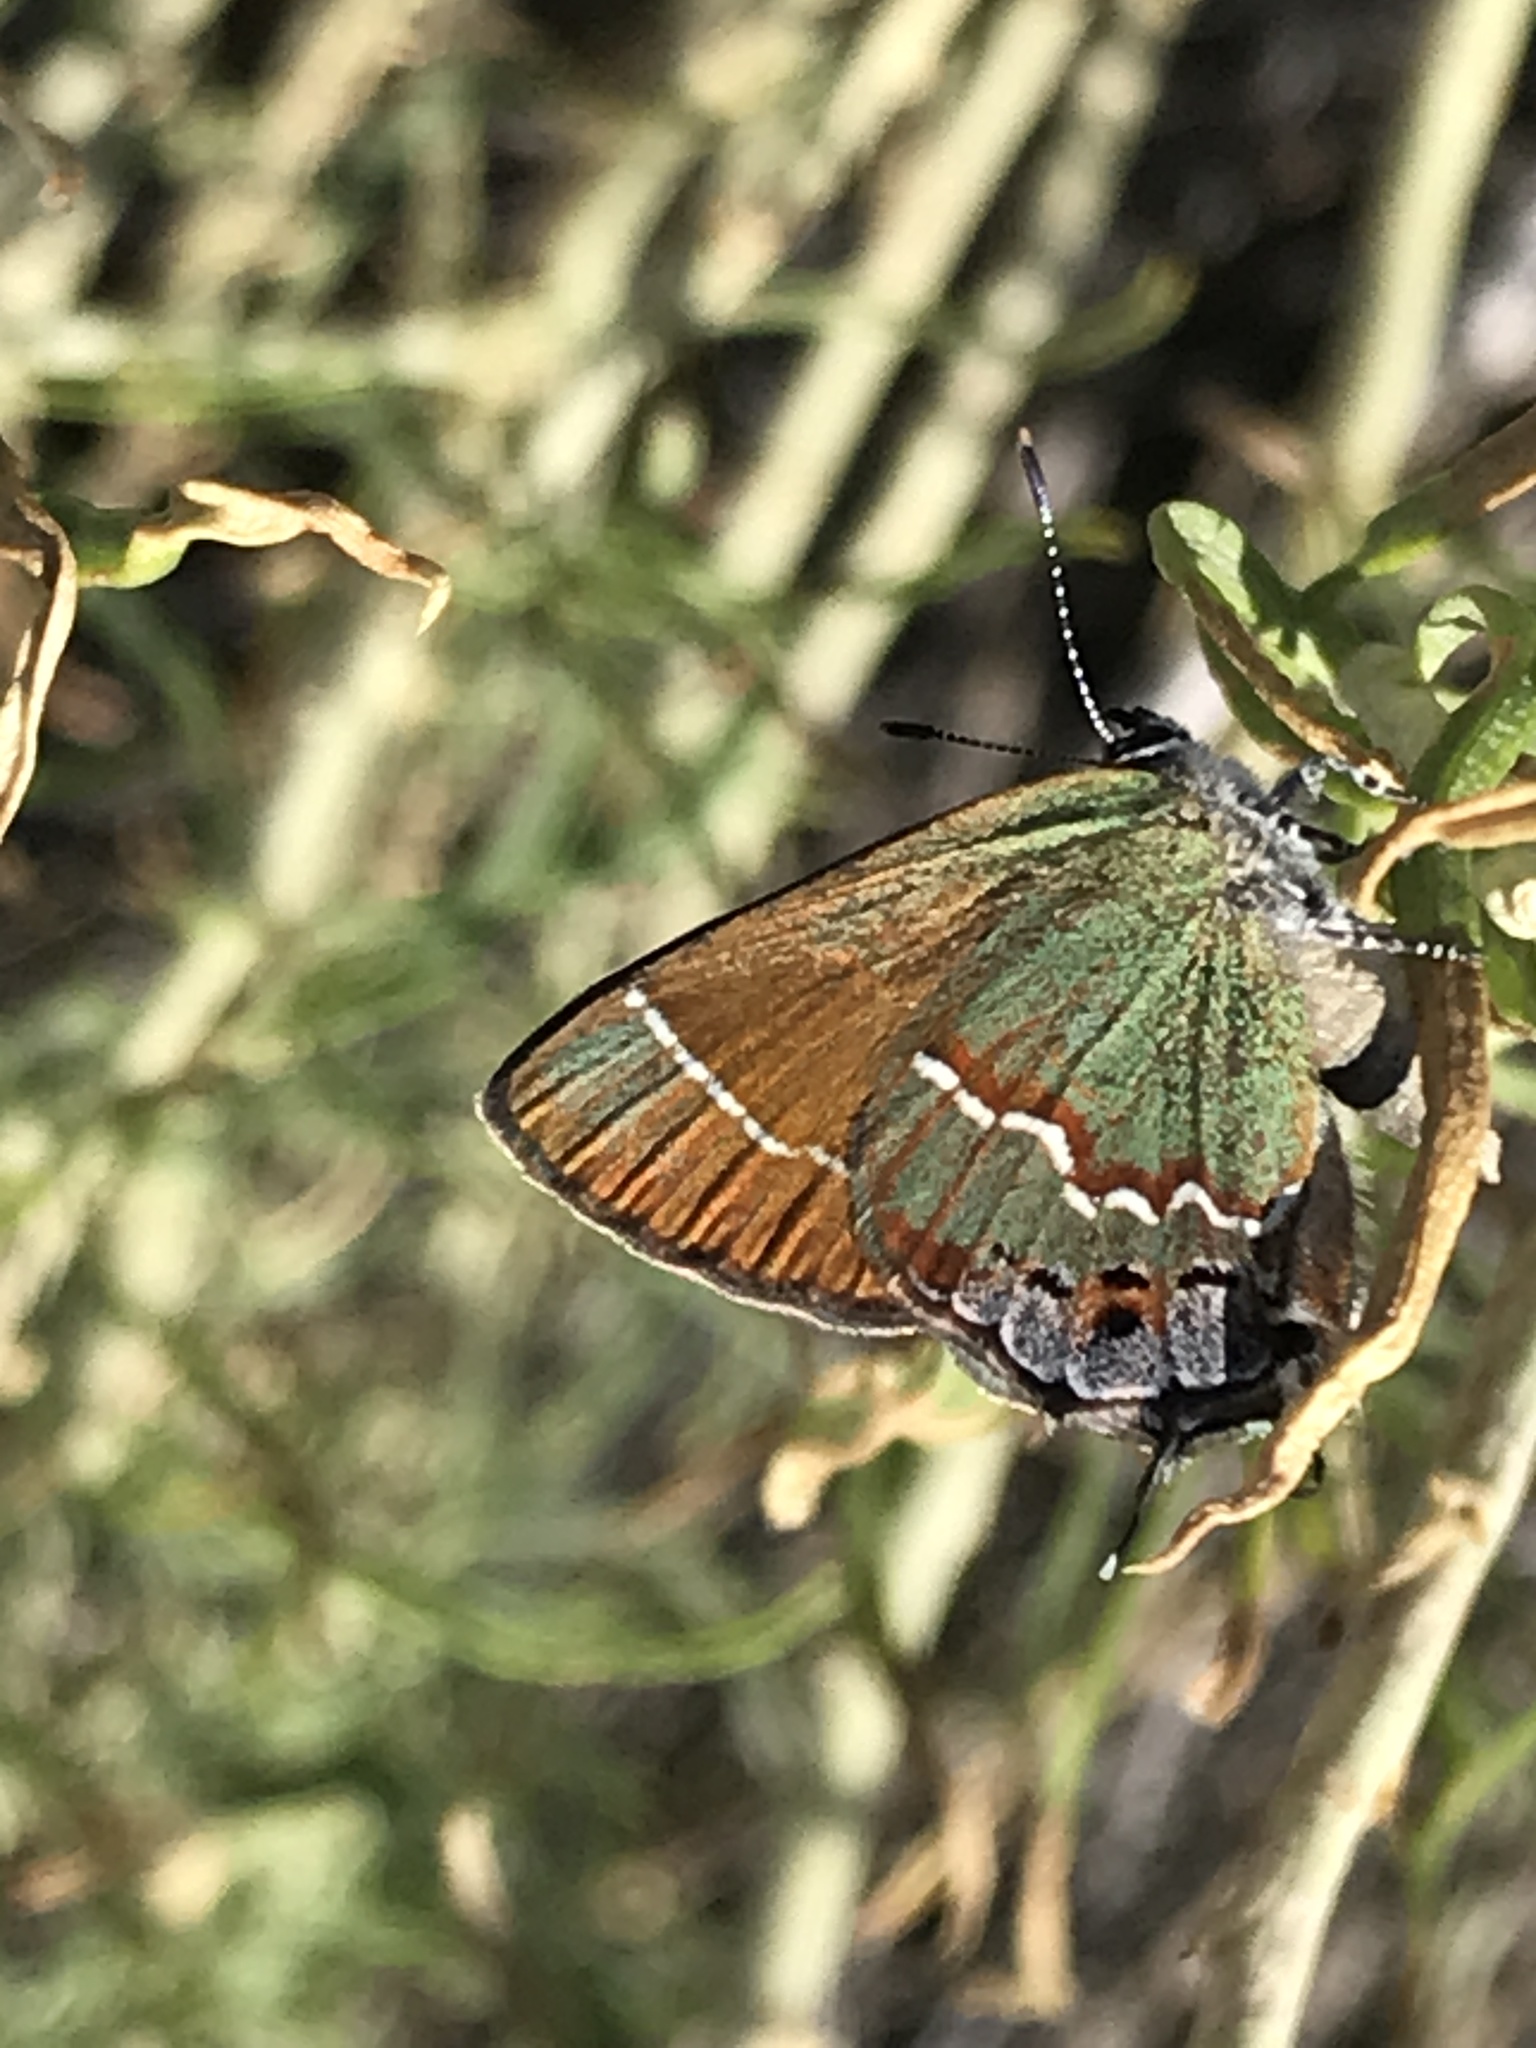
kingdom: Animalia
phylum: Arthropoda
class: Insecta
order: Lepidoptera
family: Lycaenidae
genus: Mitoura
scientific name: Mitoura siva
